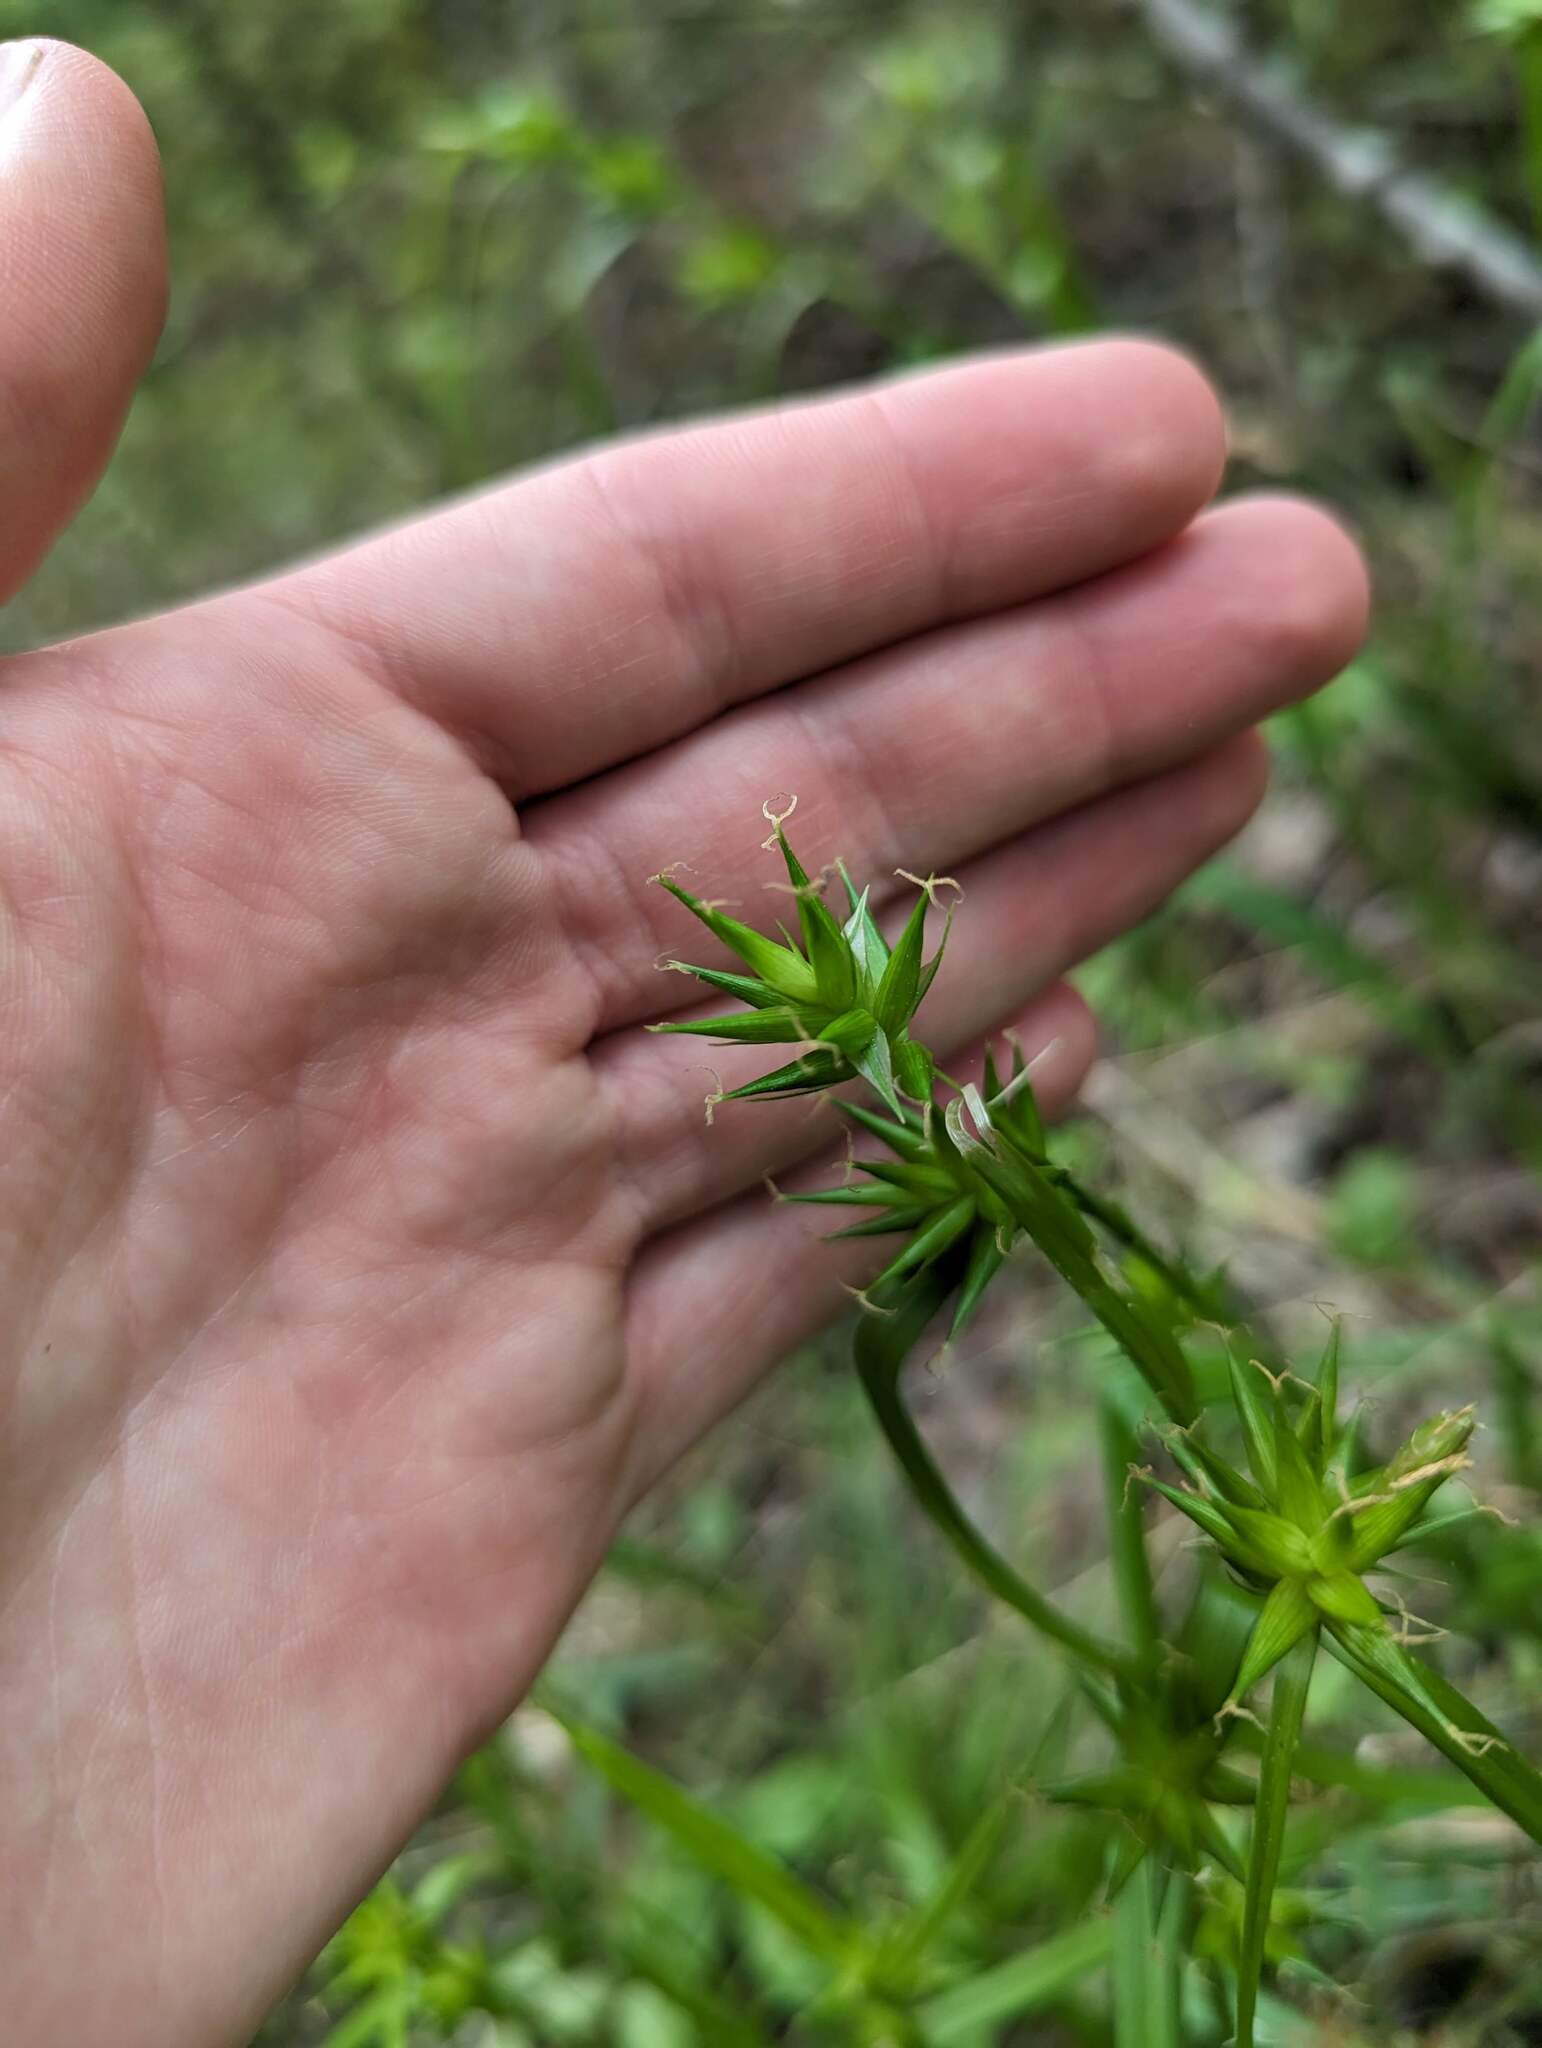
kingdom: Plantae
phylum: Tracheophyta
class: Liliopsida
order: Poales
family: Cyperaceae
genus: Carex
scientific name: Carex folliculata
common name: Northern long sedge
